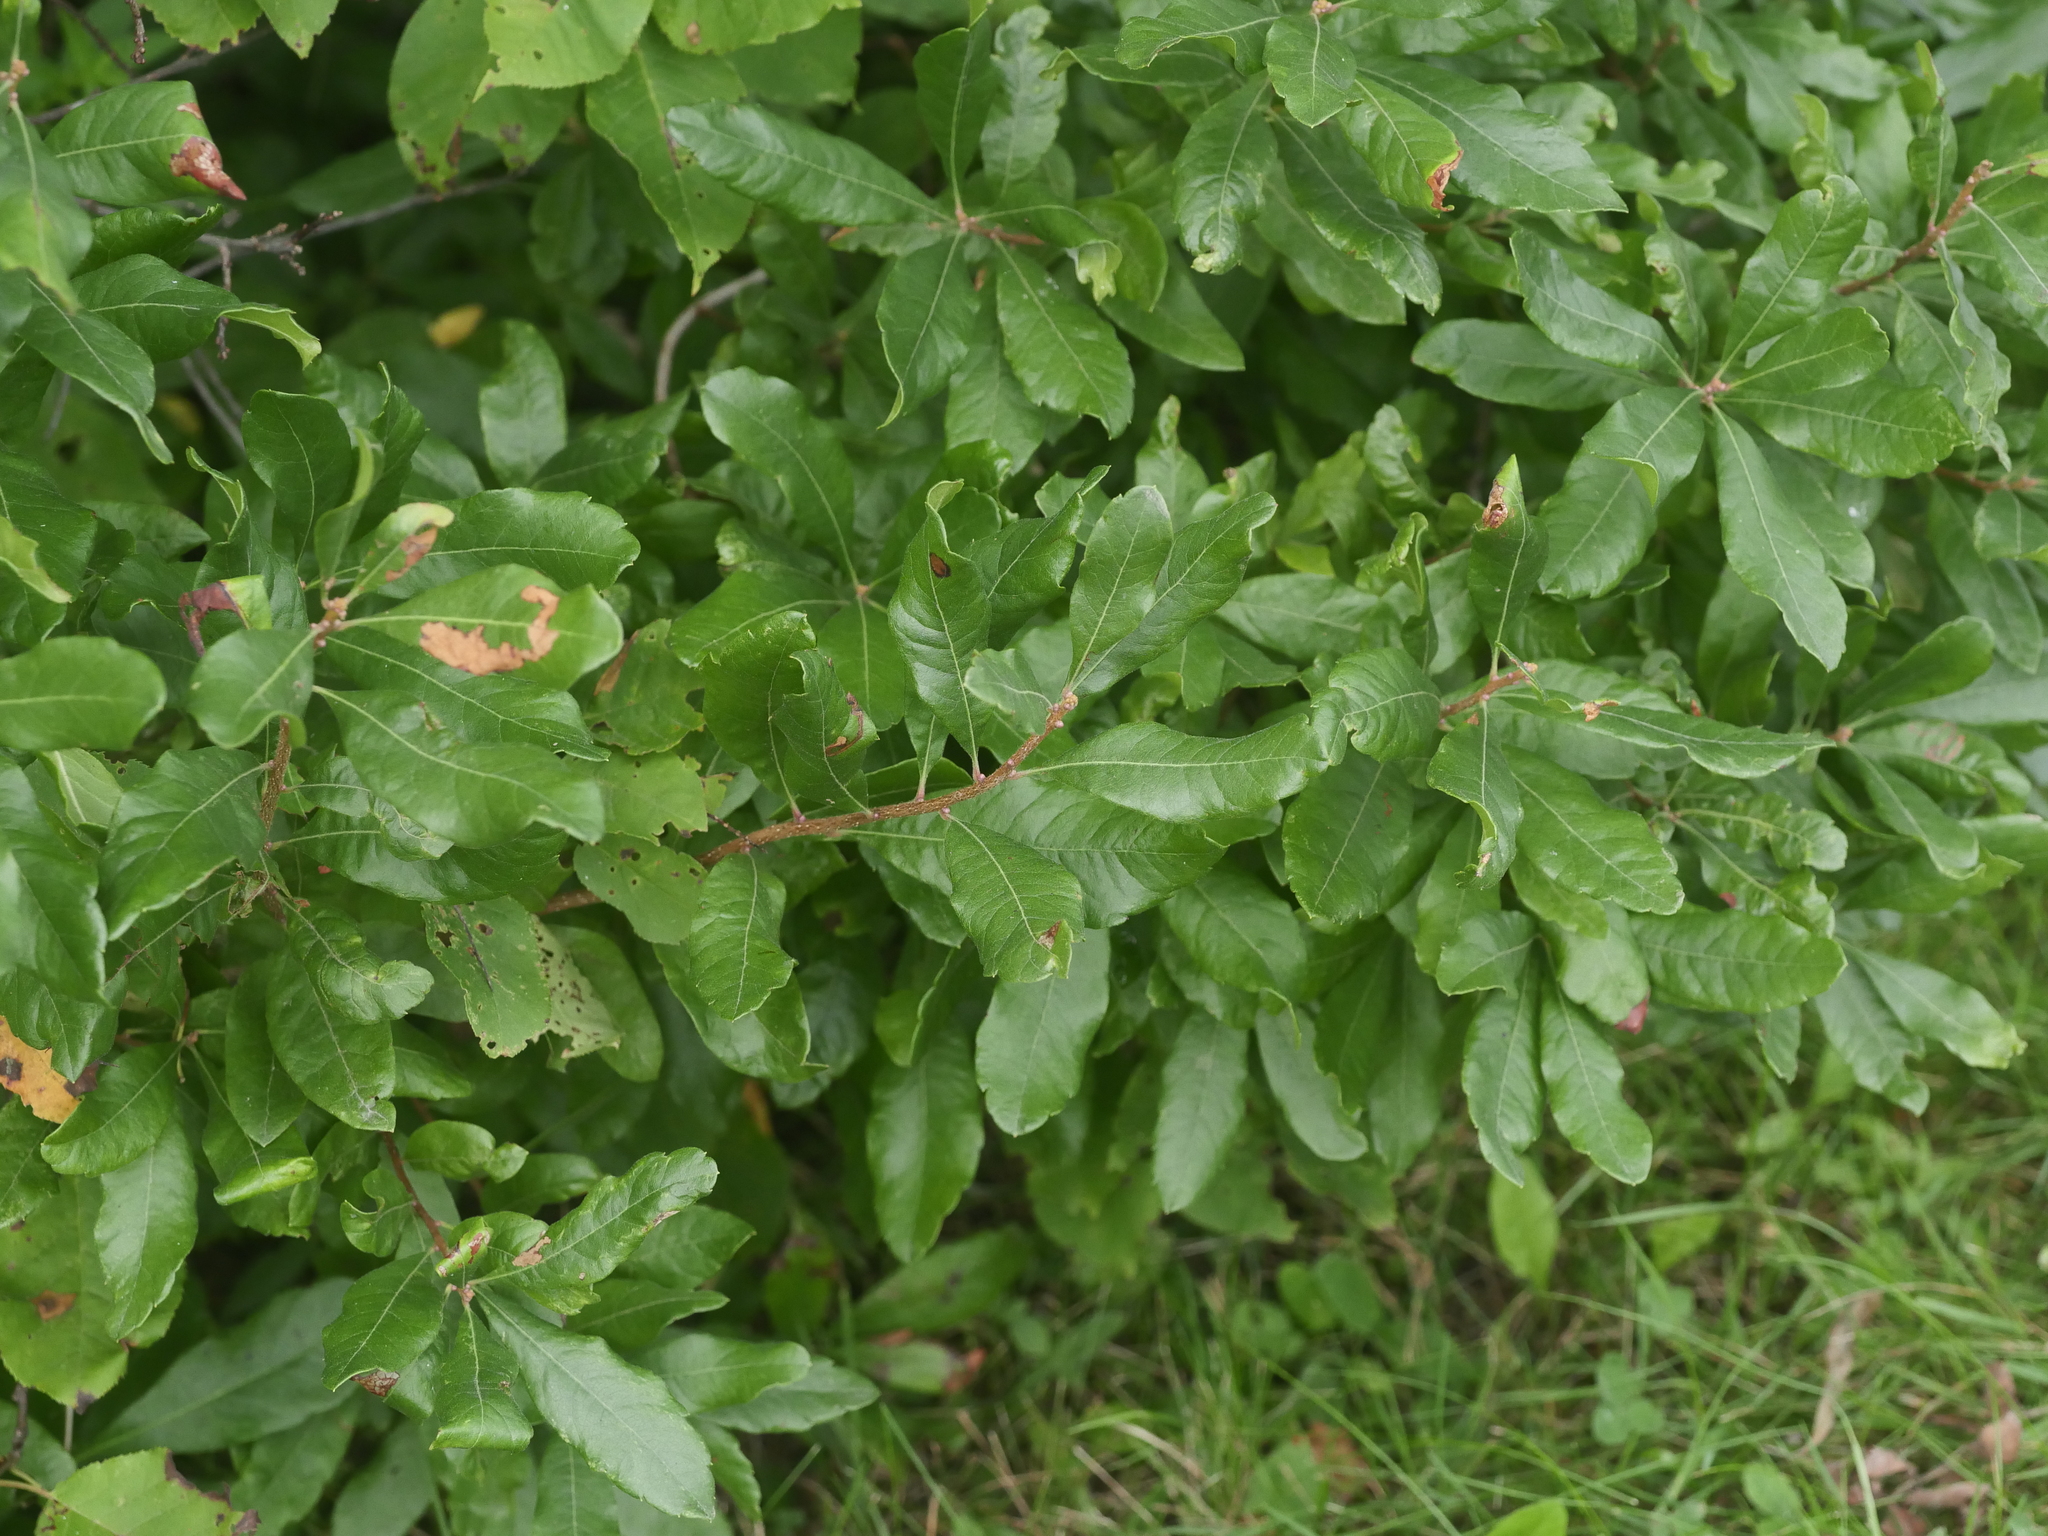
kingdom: Plantae
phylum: Tracheophyta
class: Magnoliopsida
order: Fagales
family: Myricaceae
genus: Morella
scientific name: Morella pensylvanica
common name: Northern bayberry
